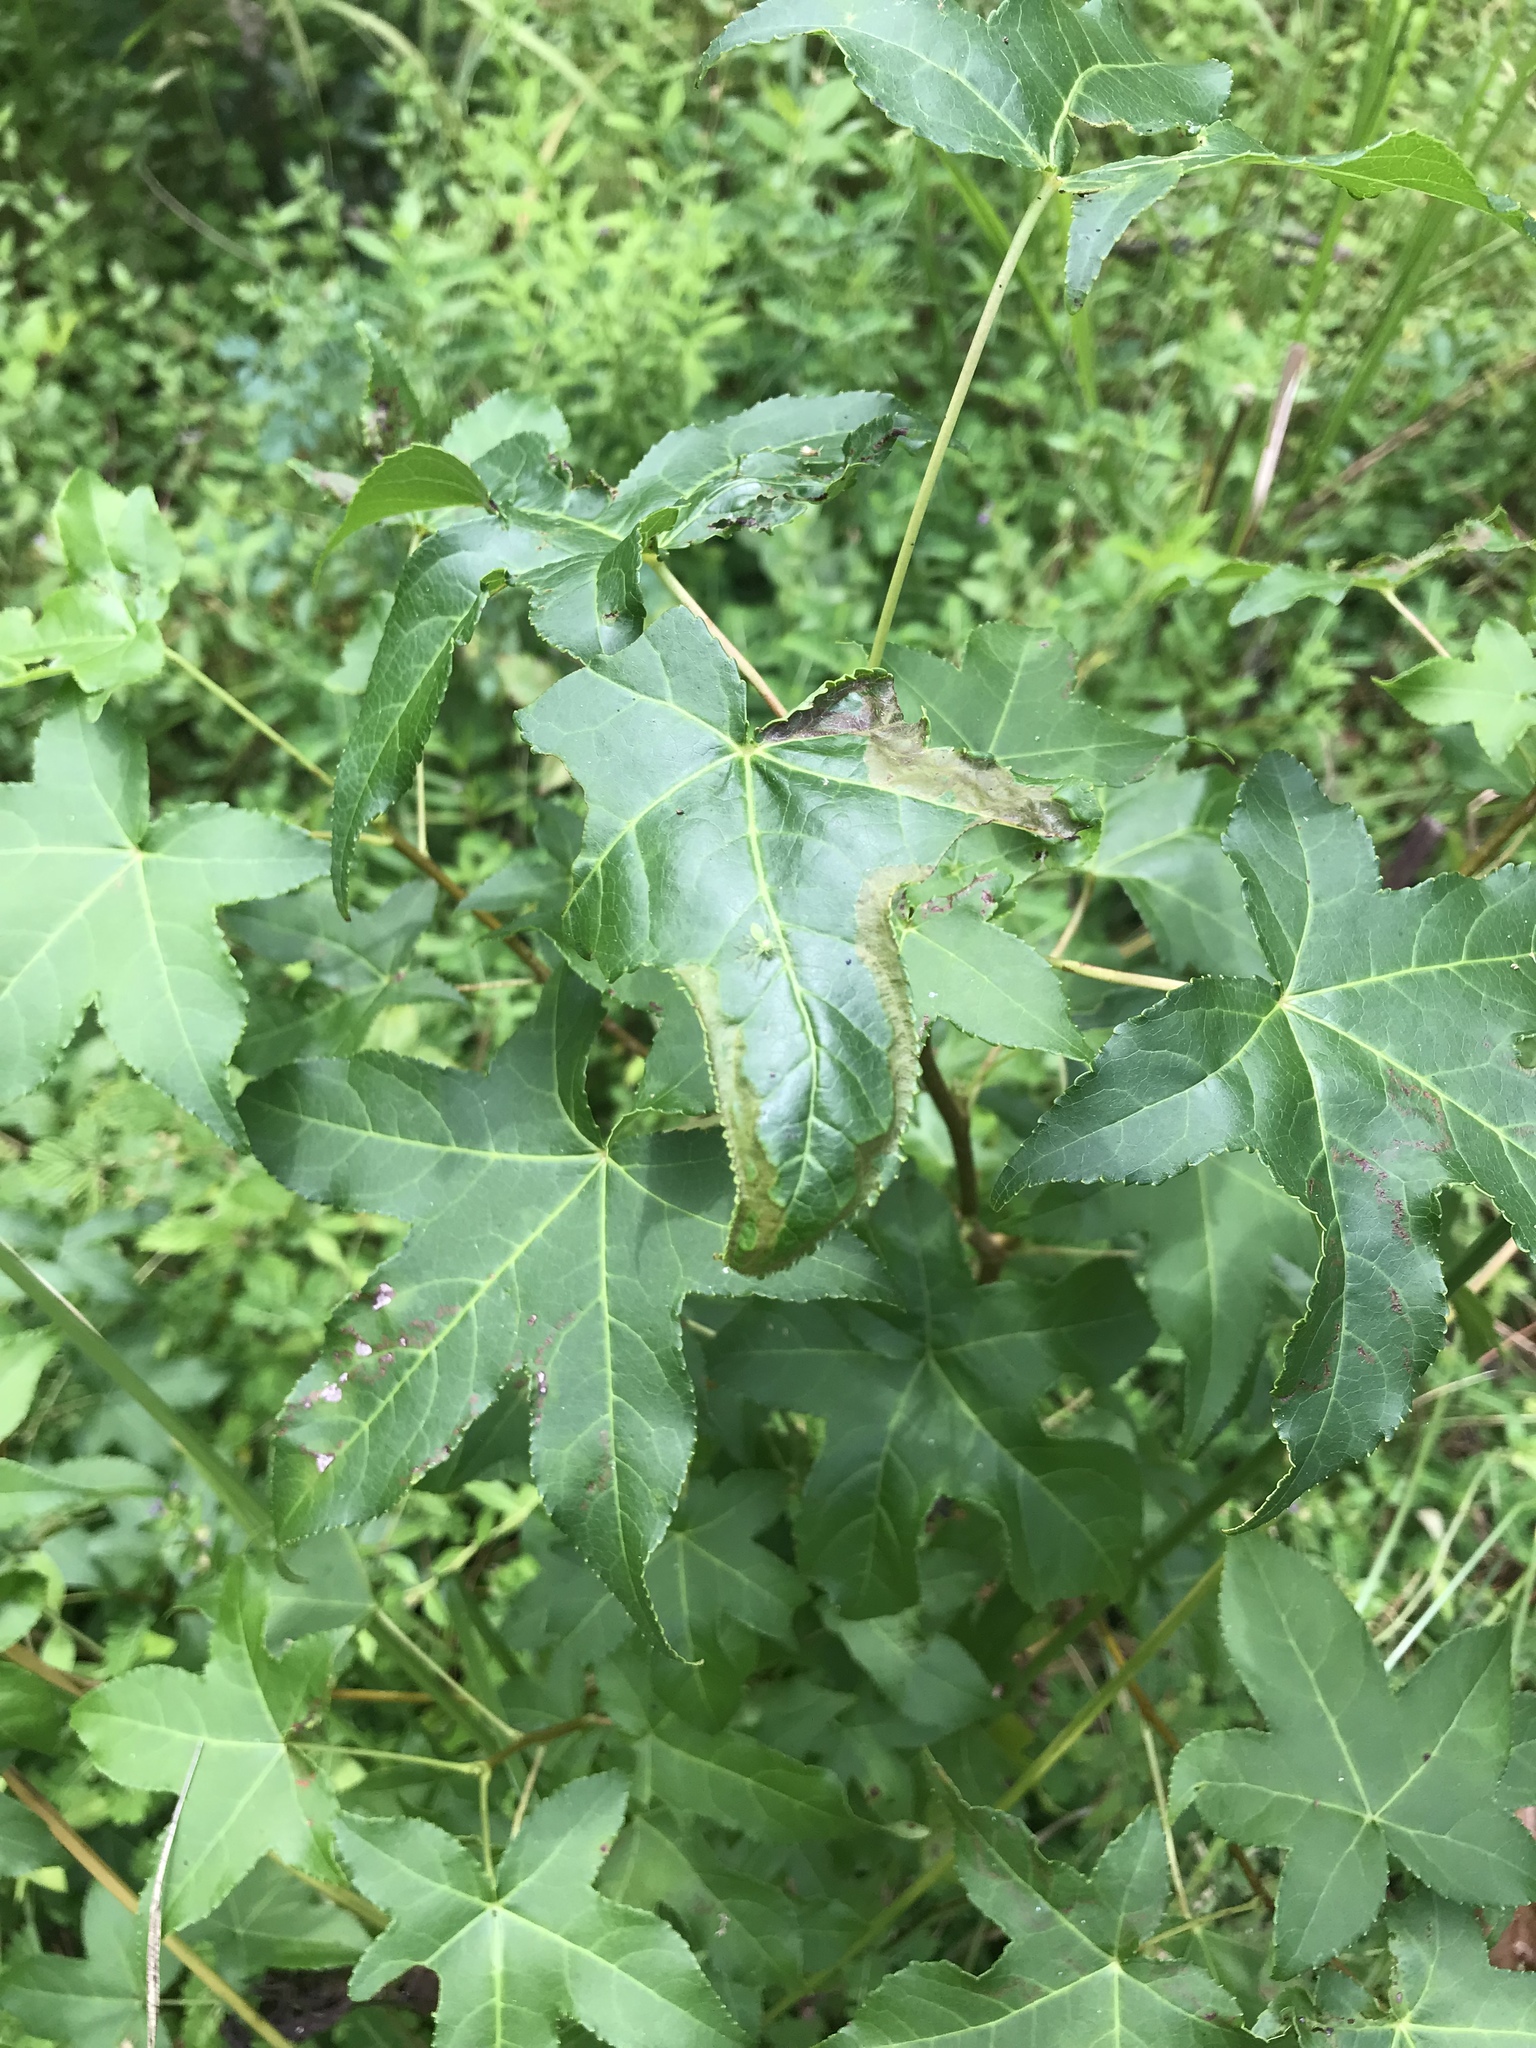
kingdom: Plantae
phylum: Tracheophyta
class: Magnoliopsida
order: Saxifragales
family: Altingiaceae
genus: Liquidambar
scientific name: Liquidambar styraciflua
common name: Sweet gum
